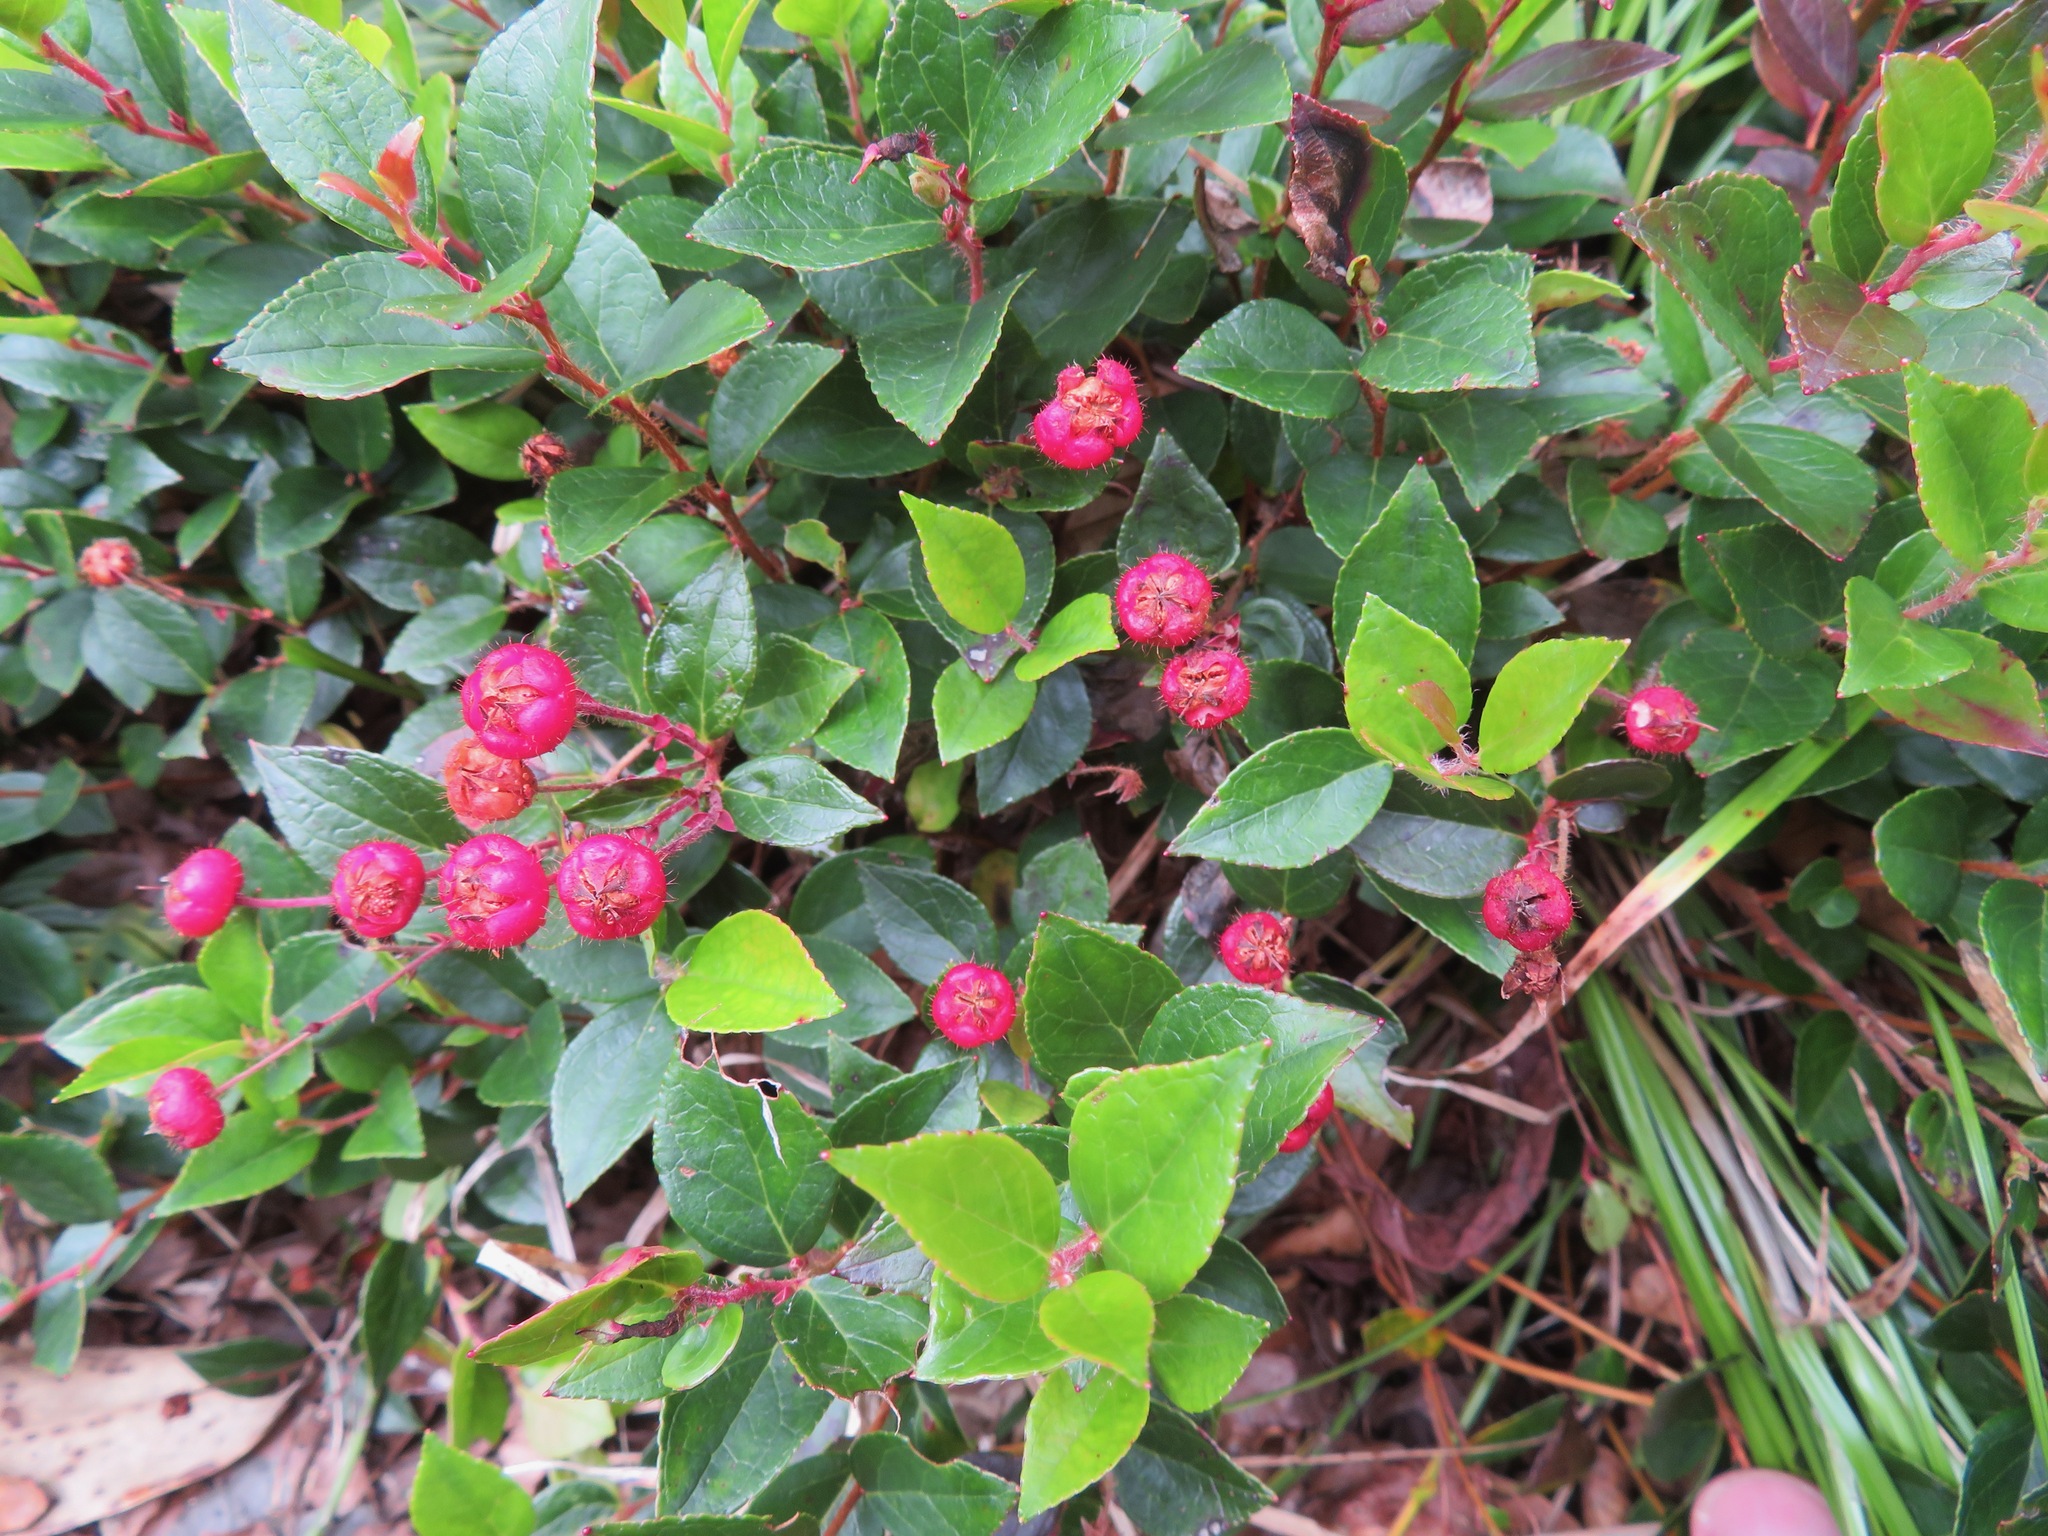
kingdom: Plantae
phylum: Tracheophyta
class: Magnoliopsida
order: Ericales
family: Ericaceae
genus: Gaultheria
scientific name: Gaultheria adenothrix
